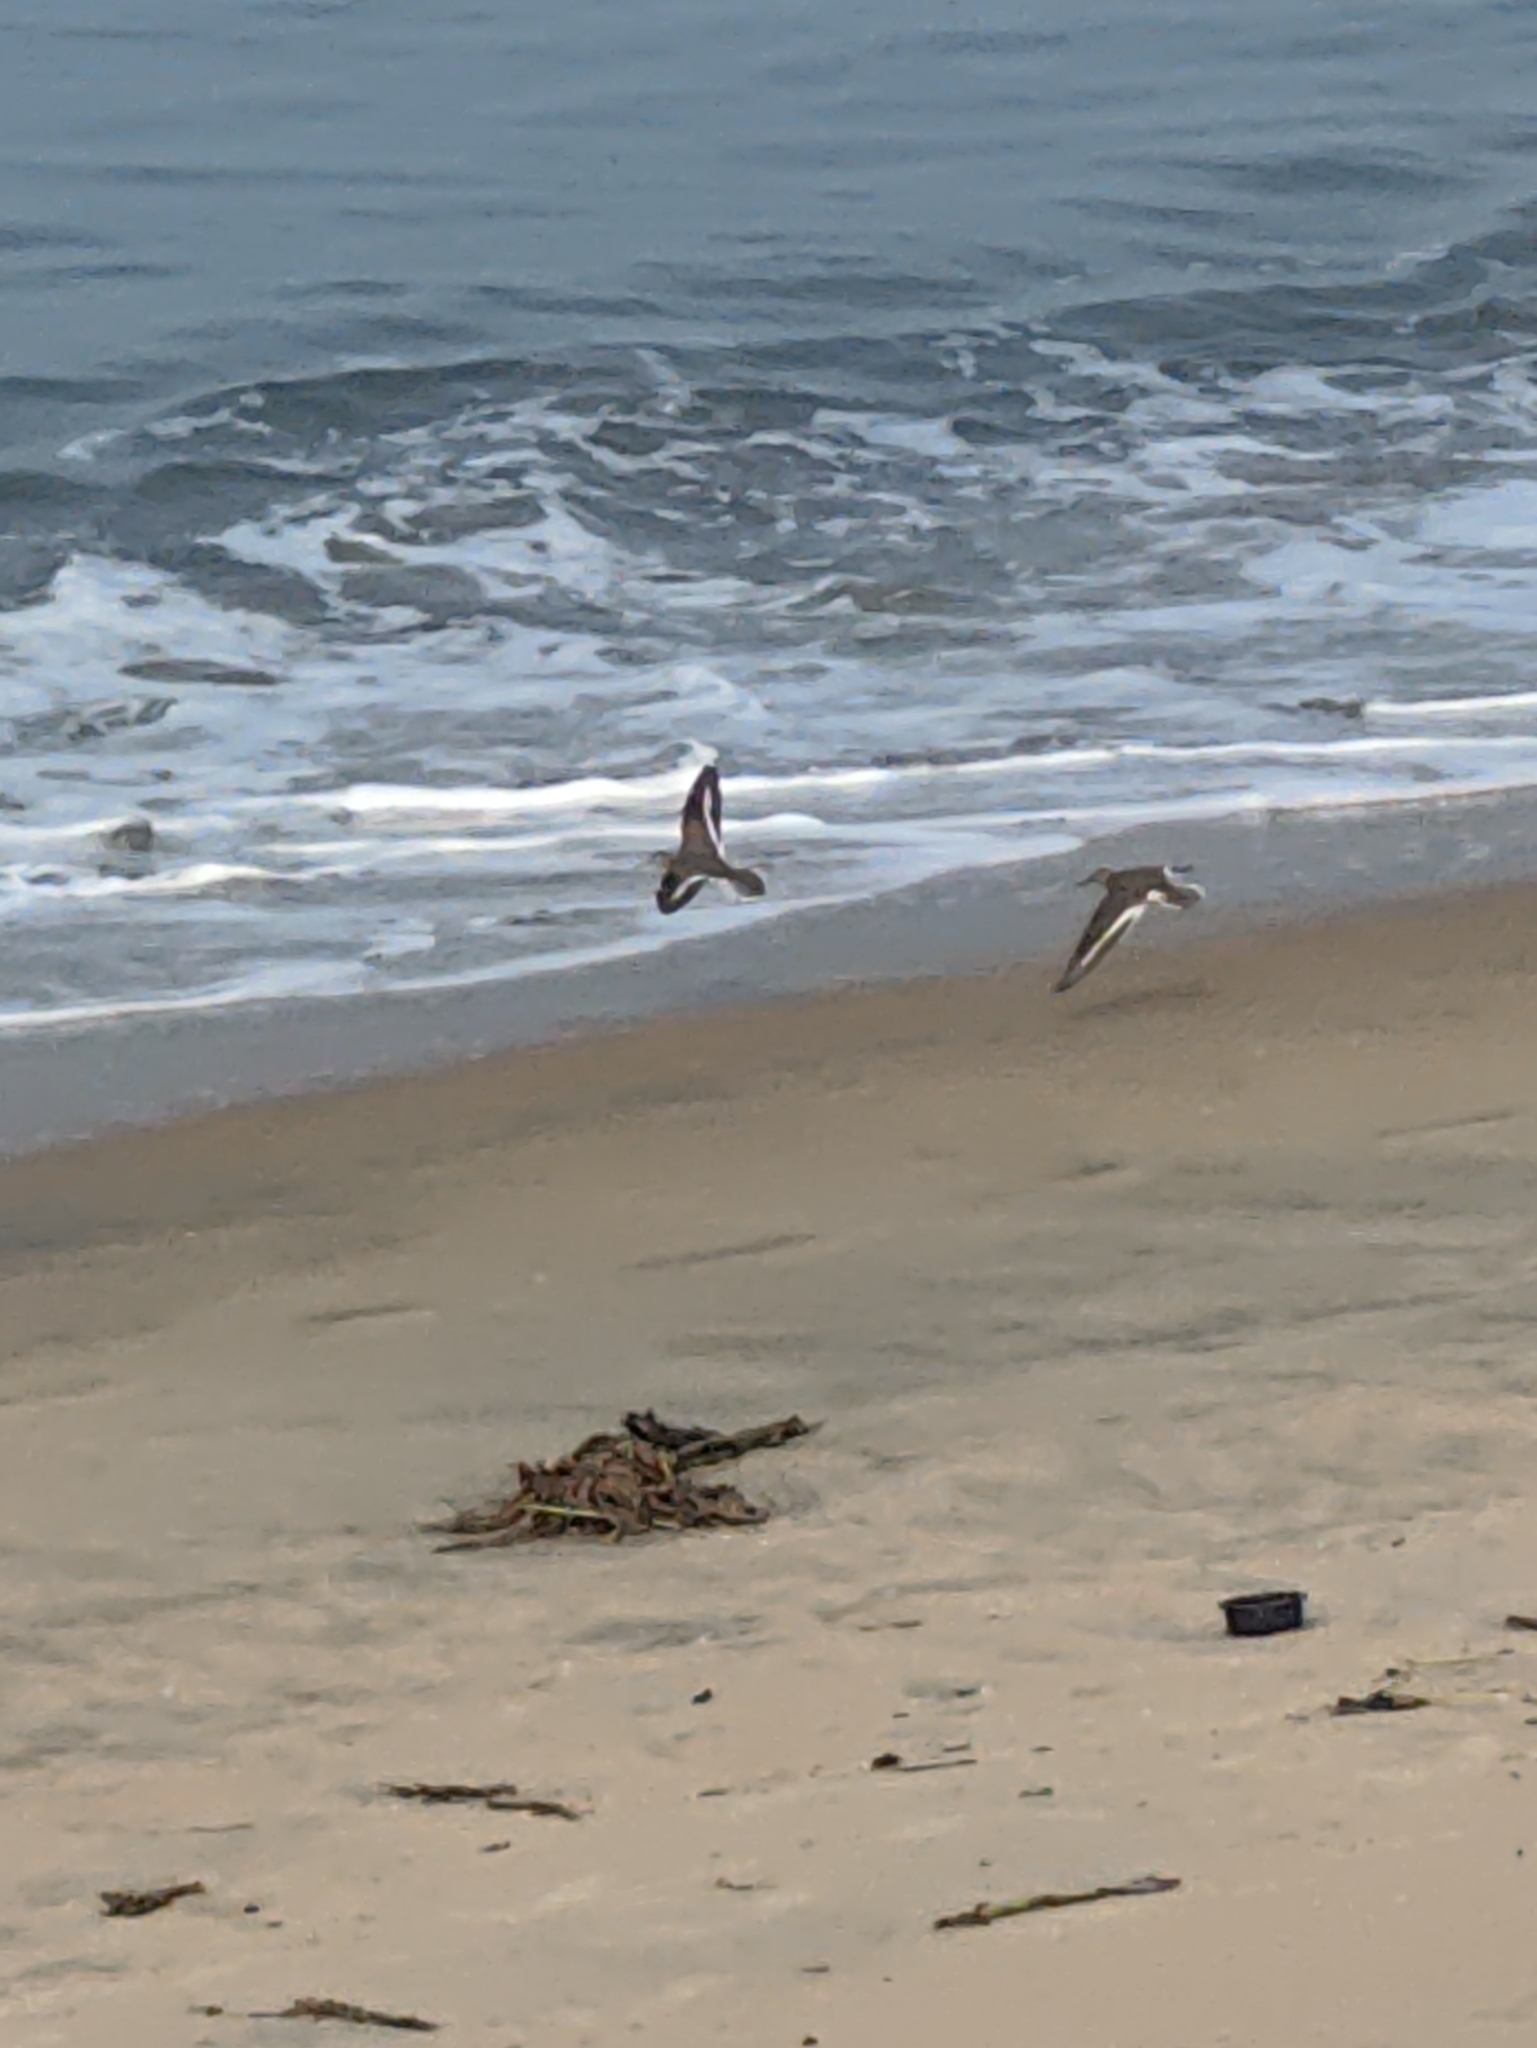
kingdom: Animalia
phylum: Chordata
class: Aves
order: Charadriiformes
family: Scolopacidae
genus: Actitis
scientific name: Actitis hypoleucos
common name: Common sandpiper
